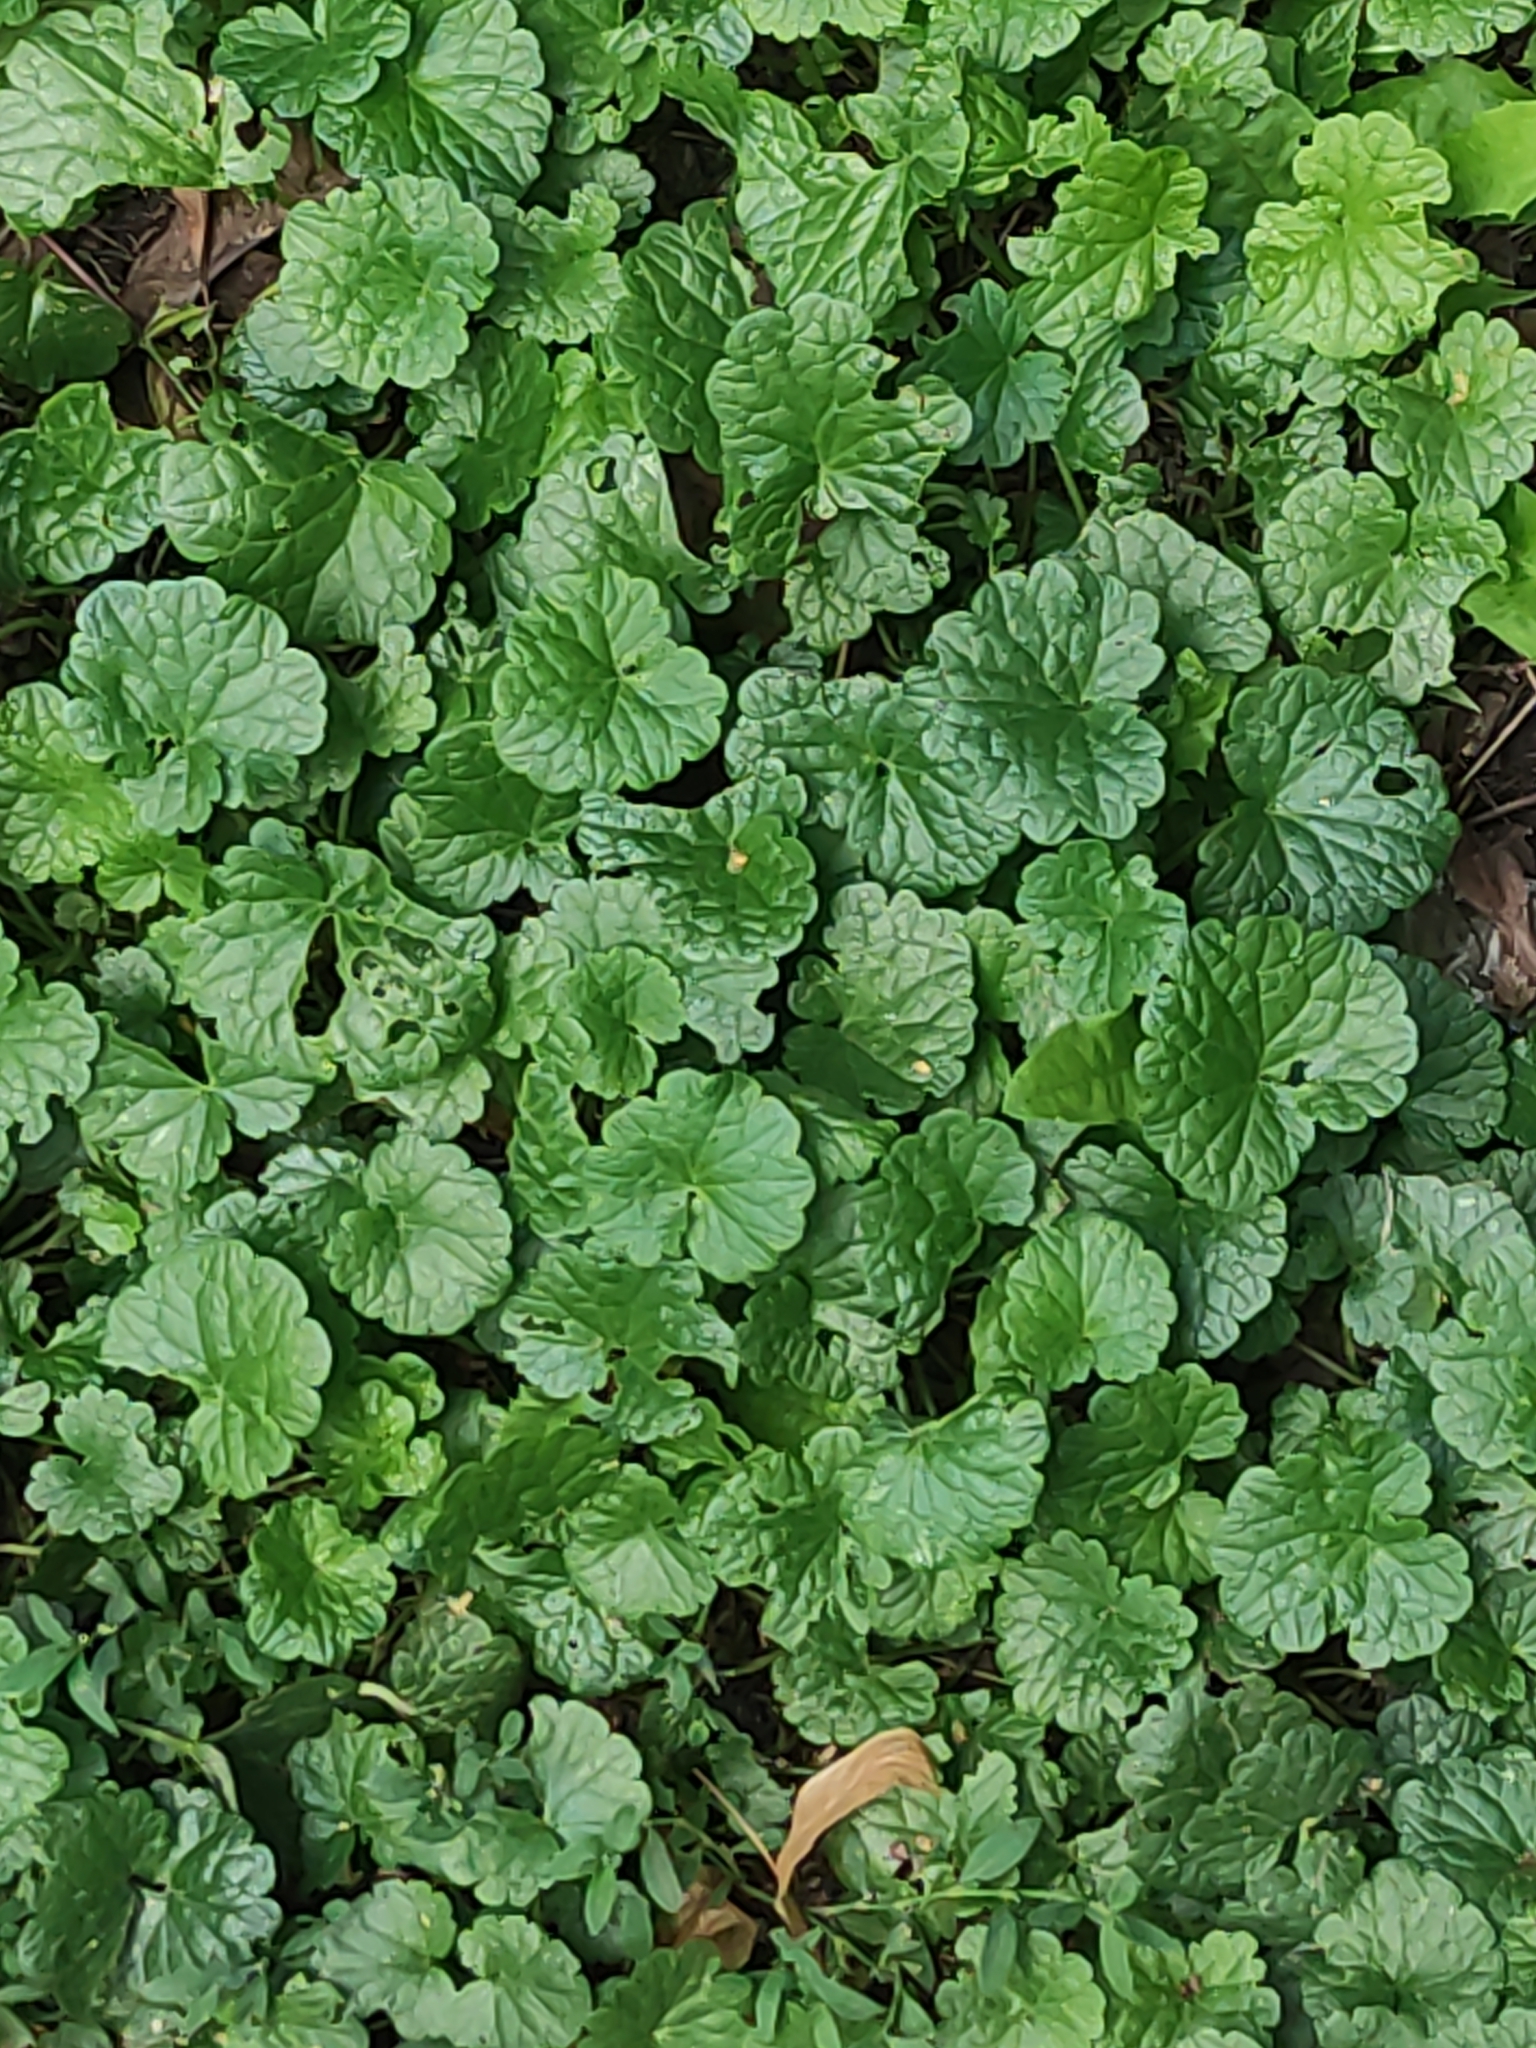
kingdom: Plantae
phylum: Tracheophyta
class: Magnoliopsida
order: Lamiales
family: Lamiaceae
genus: Glechoma
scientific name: Glechoma hederacea
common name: Ground ivy
